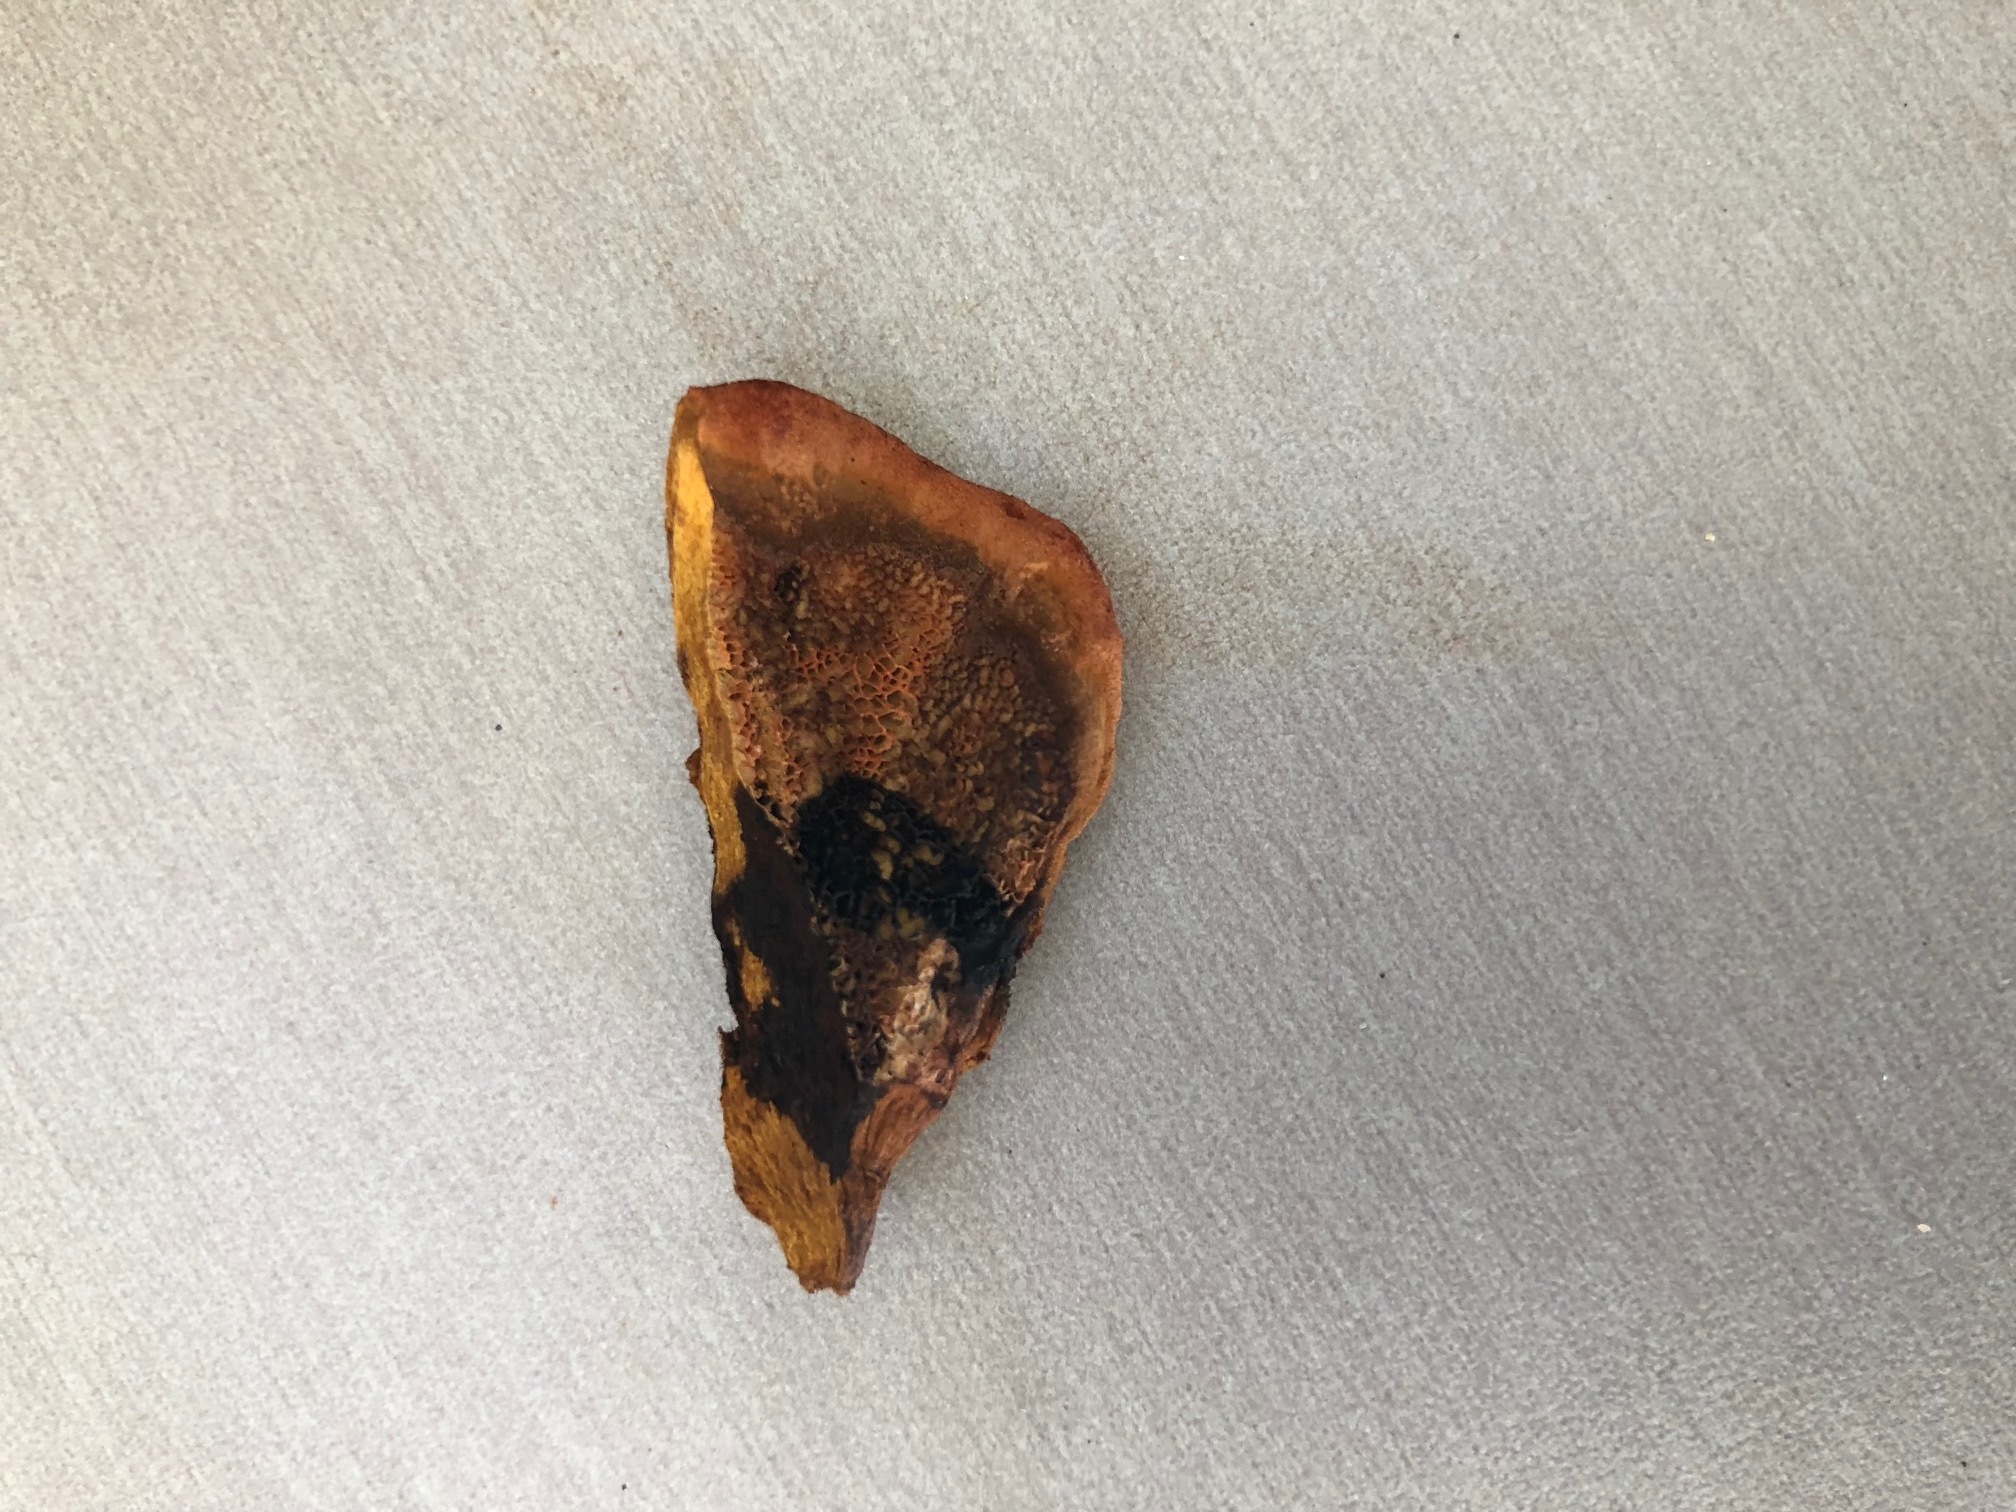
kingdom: Fungi
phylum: Basidiomycota
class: Agaricomycetes
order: Polyporales
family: Laetiporaceae
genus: Phaeolus
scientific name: Phaeolus schweinitzii
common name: Dyer's mazegill
